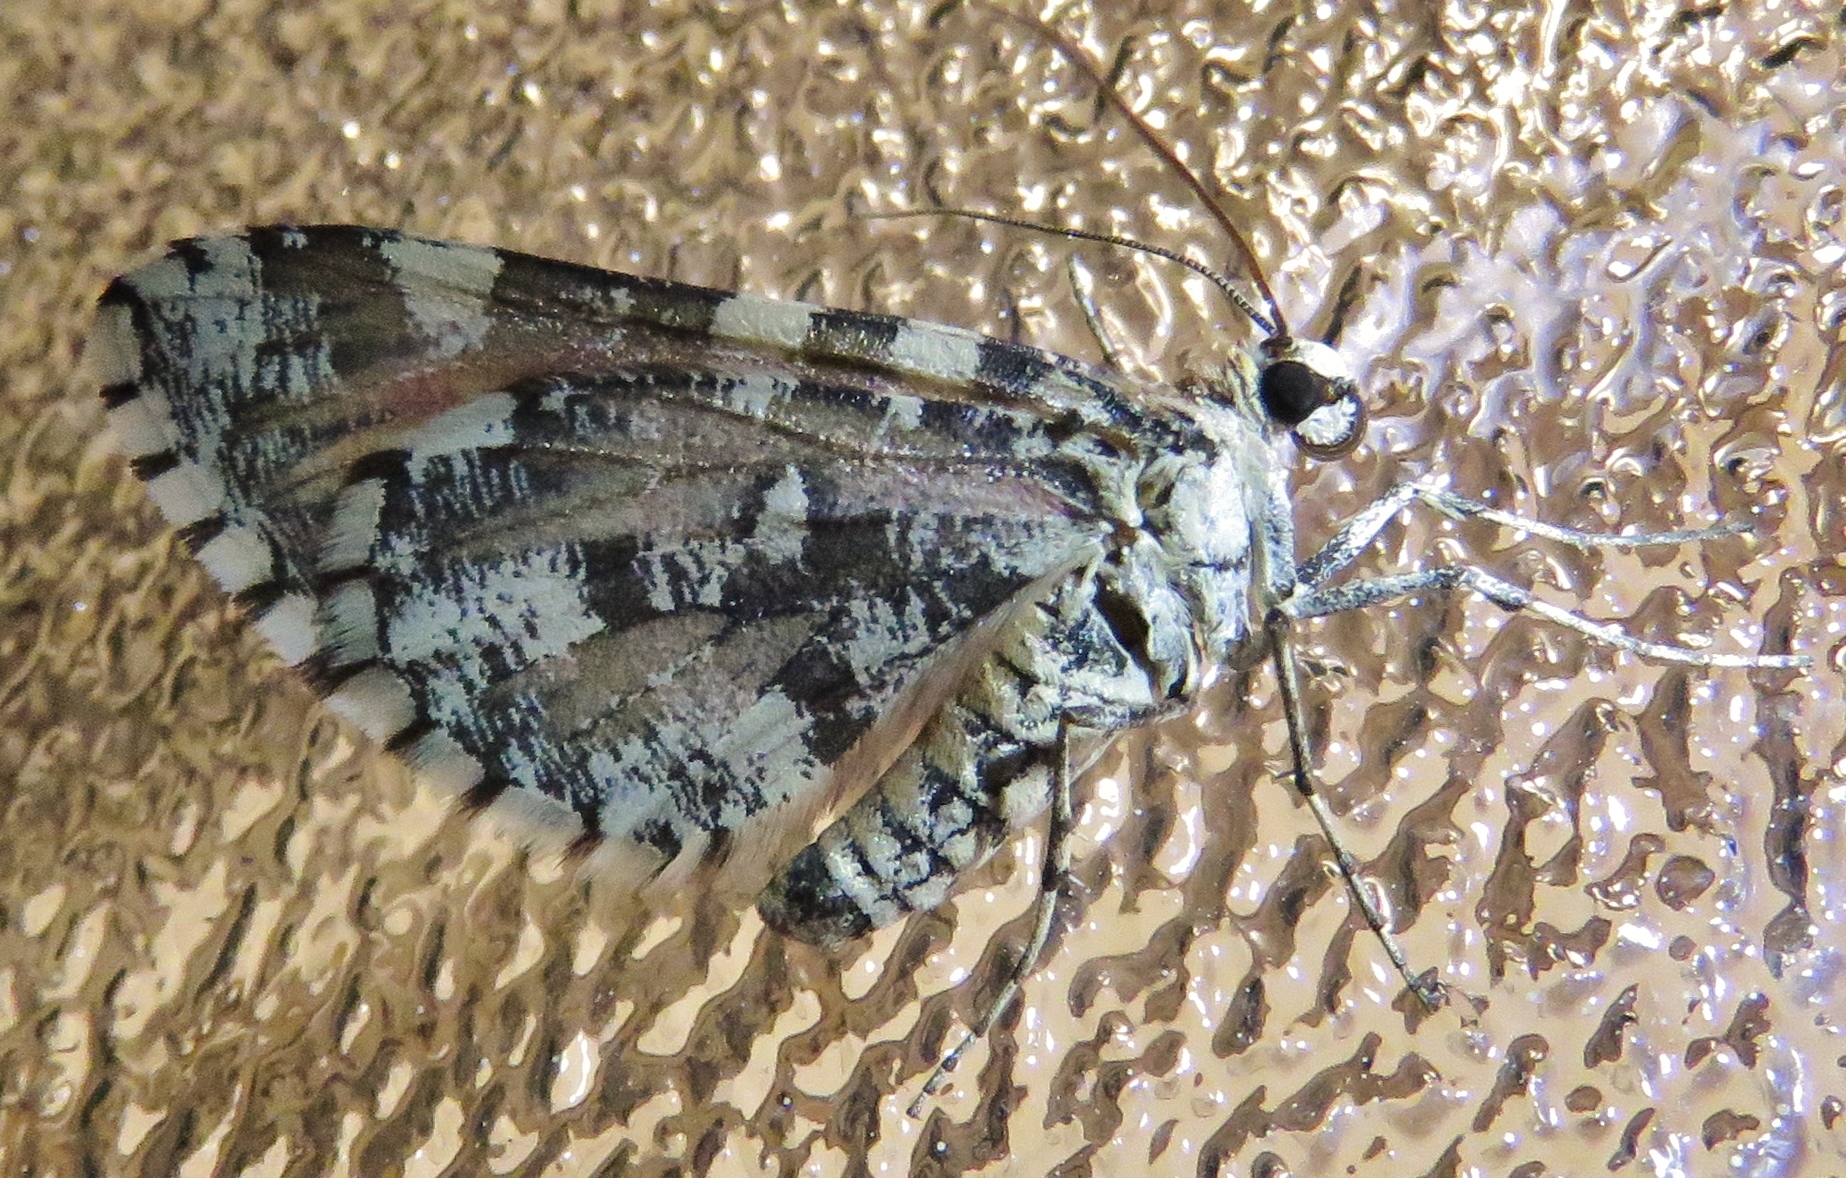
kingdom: Animalia
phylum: Arthropoda
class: Insecta
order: Lepidoptera
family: Geometridae
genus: Stamnodes
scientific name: Stamnodes tessellata
